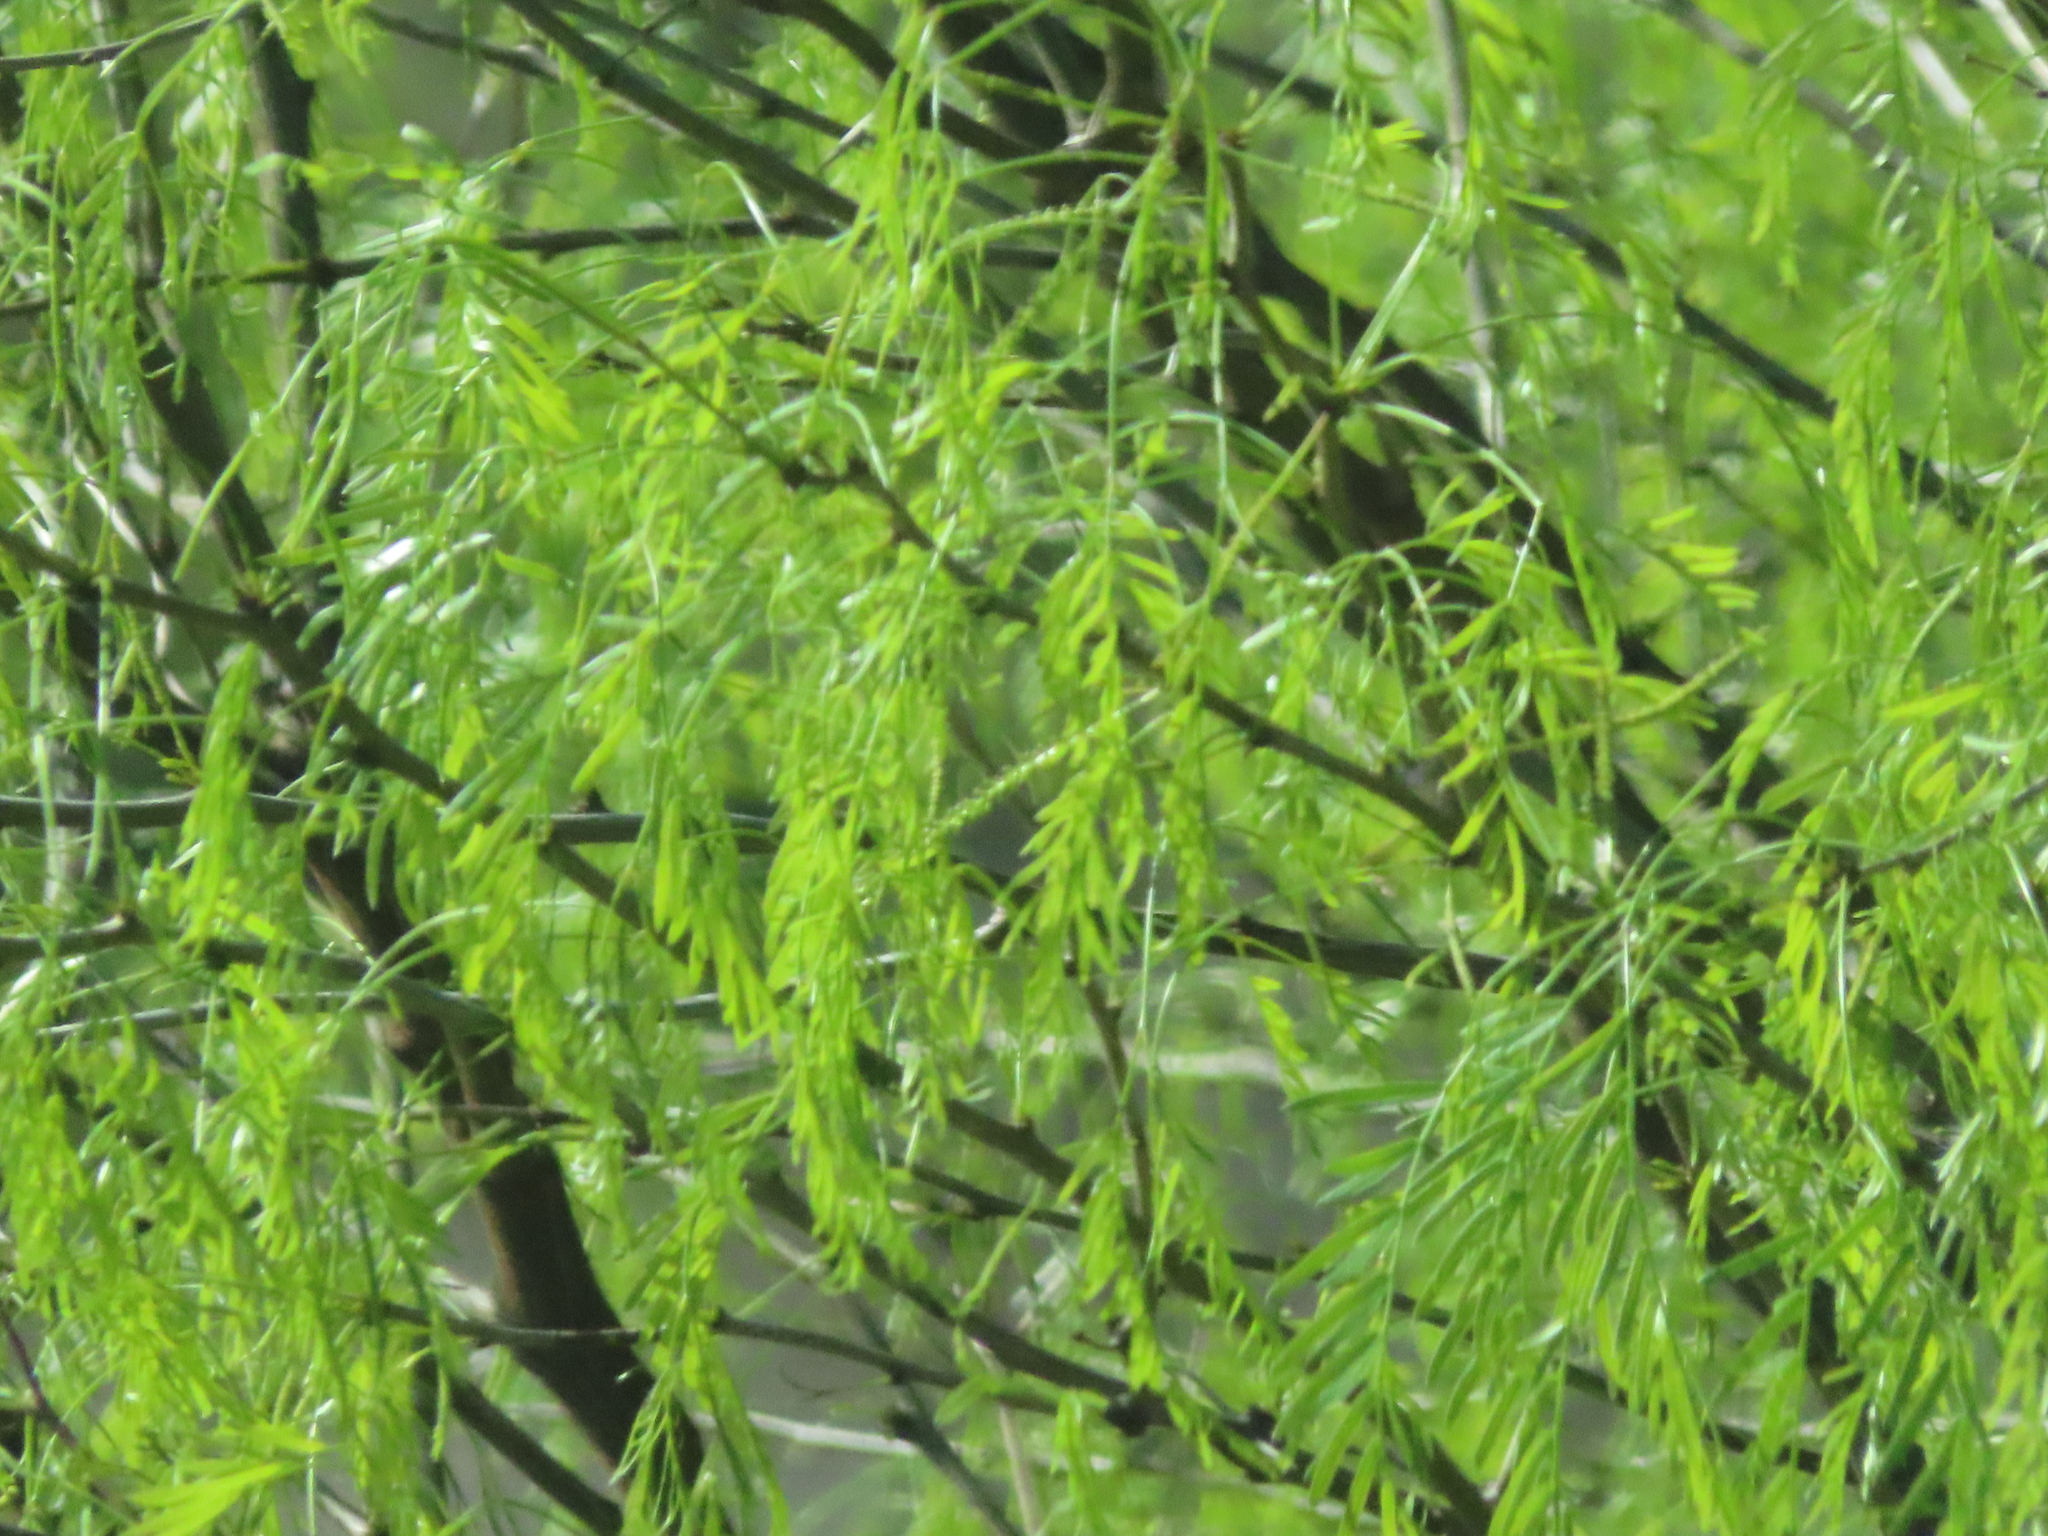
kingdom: Plantae
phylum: Tracheophyta
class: Magnoliopsida
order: Fabales
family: Fabaceae
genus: Prosopis
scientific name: Prosopis glandulosa
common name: Honey mesquite
